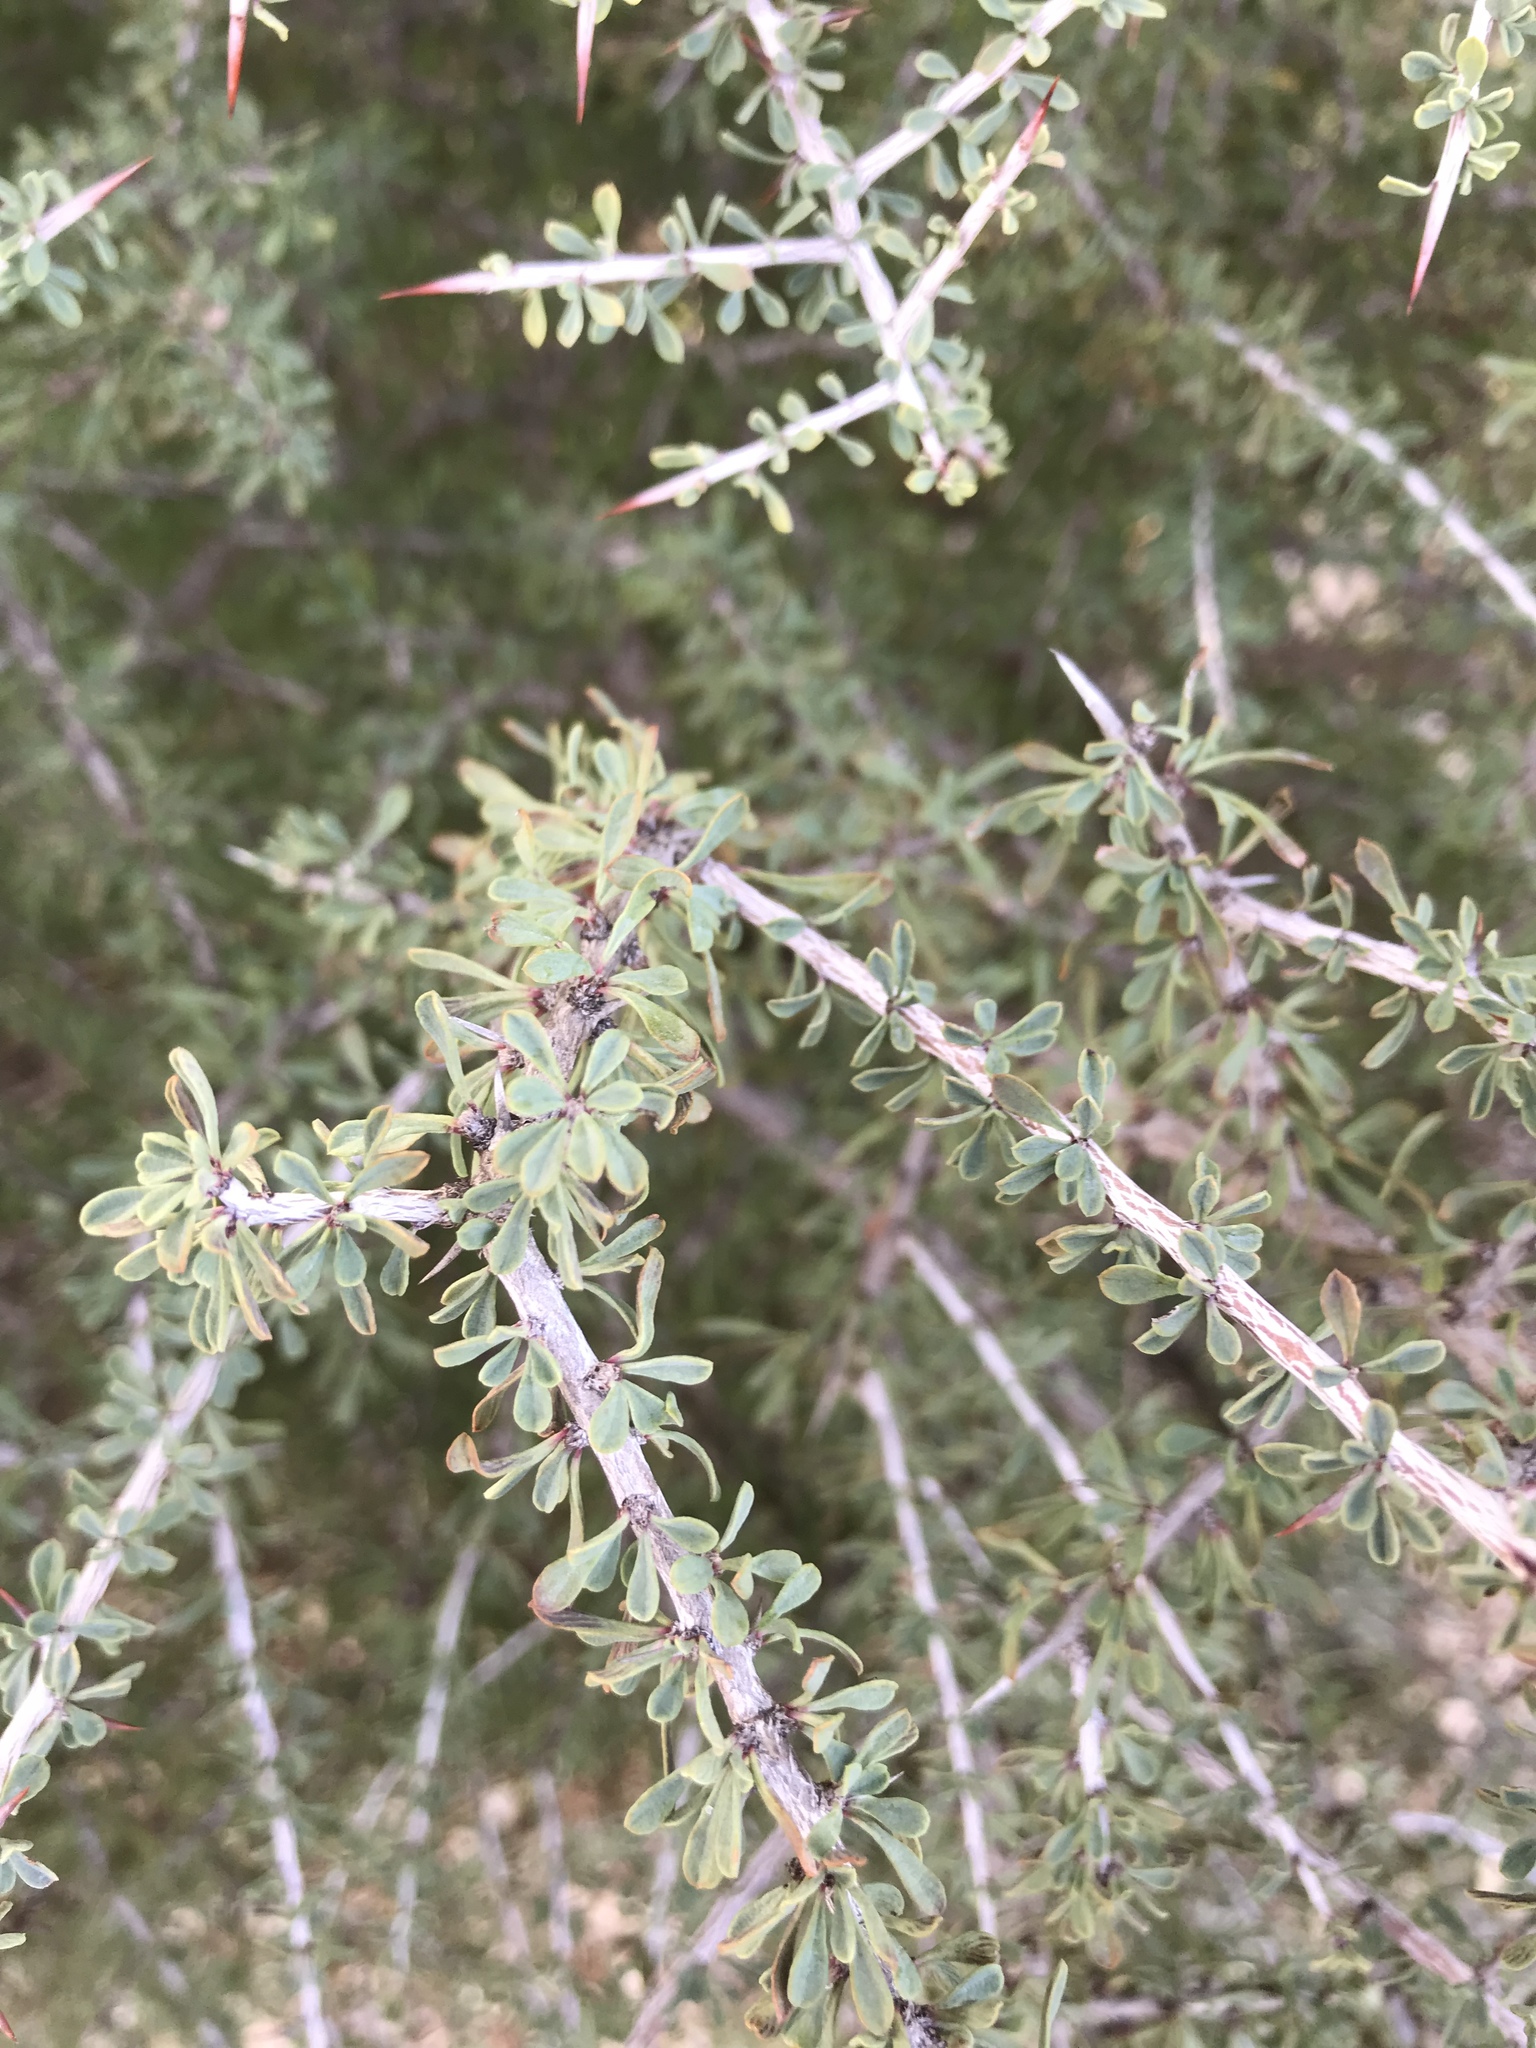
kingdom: Plantae
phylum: Tracheophyta
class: Magnoliopsida
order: Rosales
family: Rhamnaceae
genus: Condalia
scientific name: Condalia spathulata
